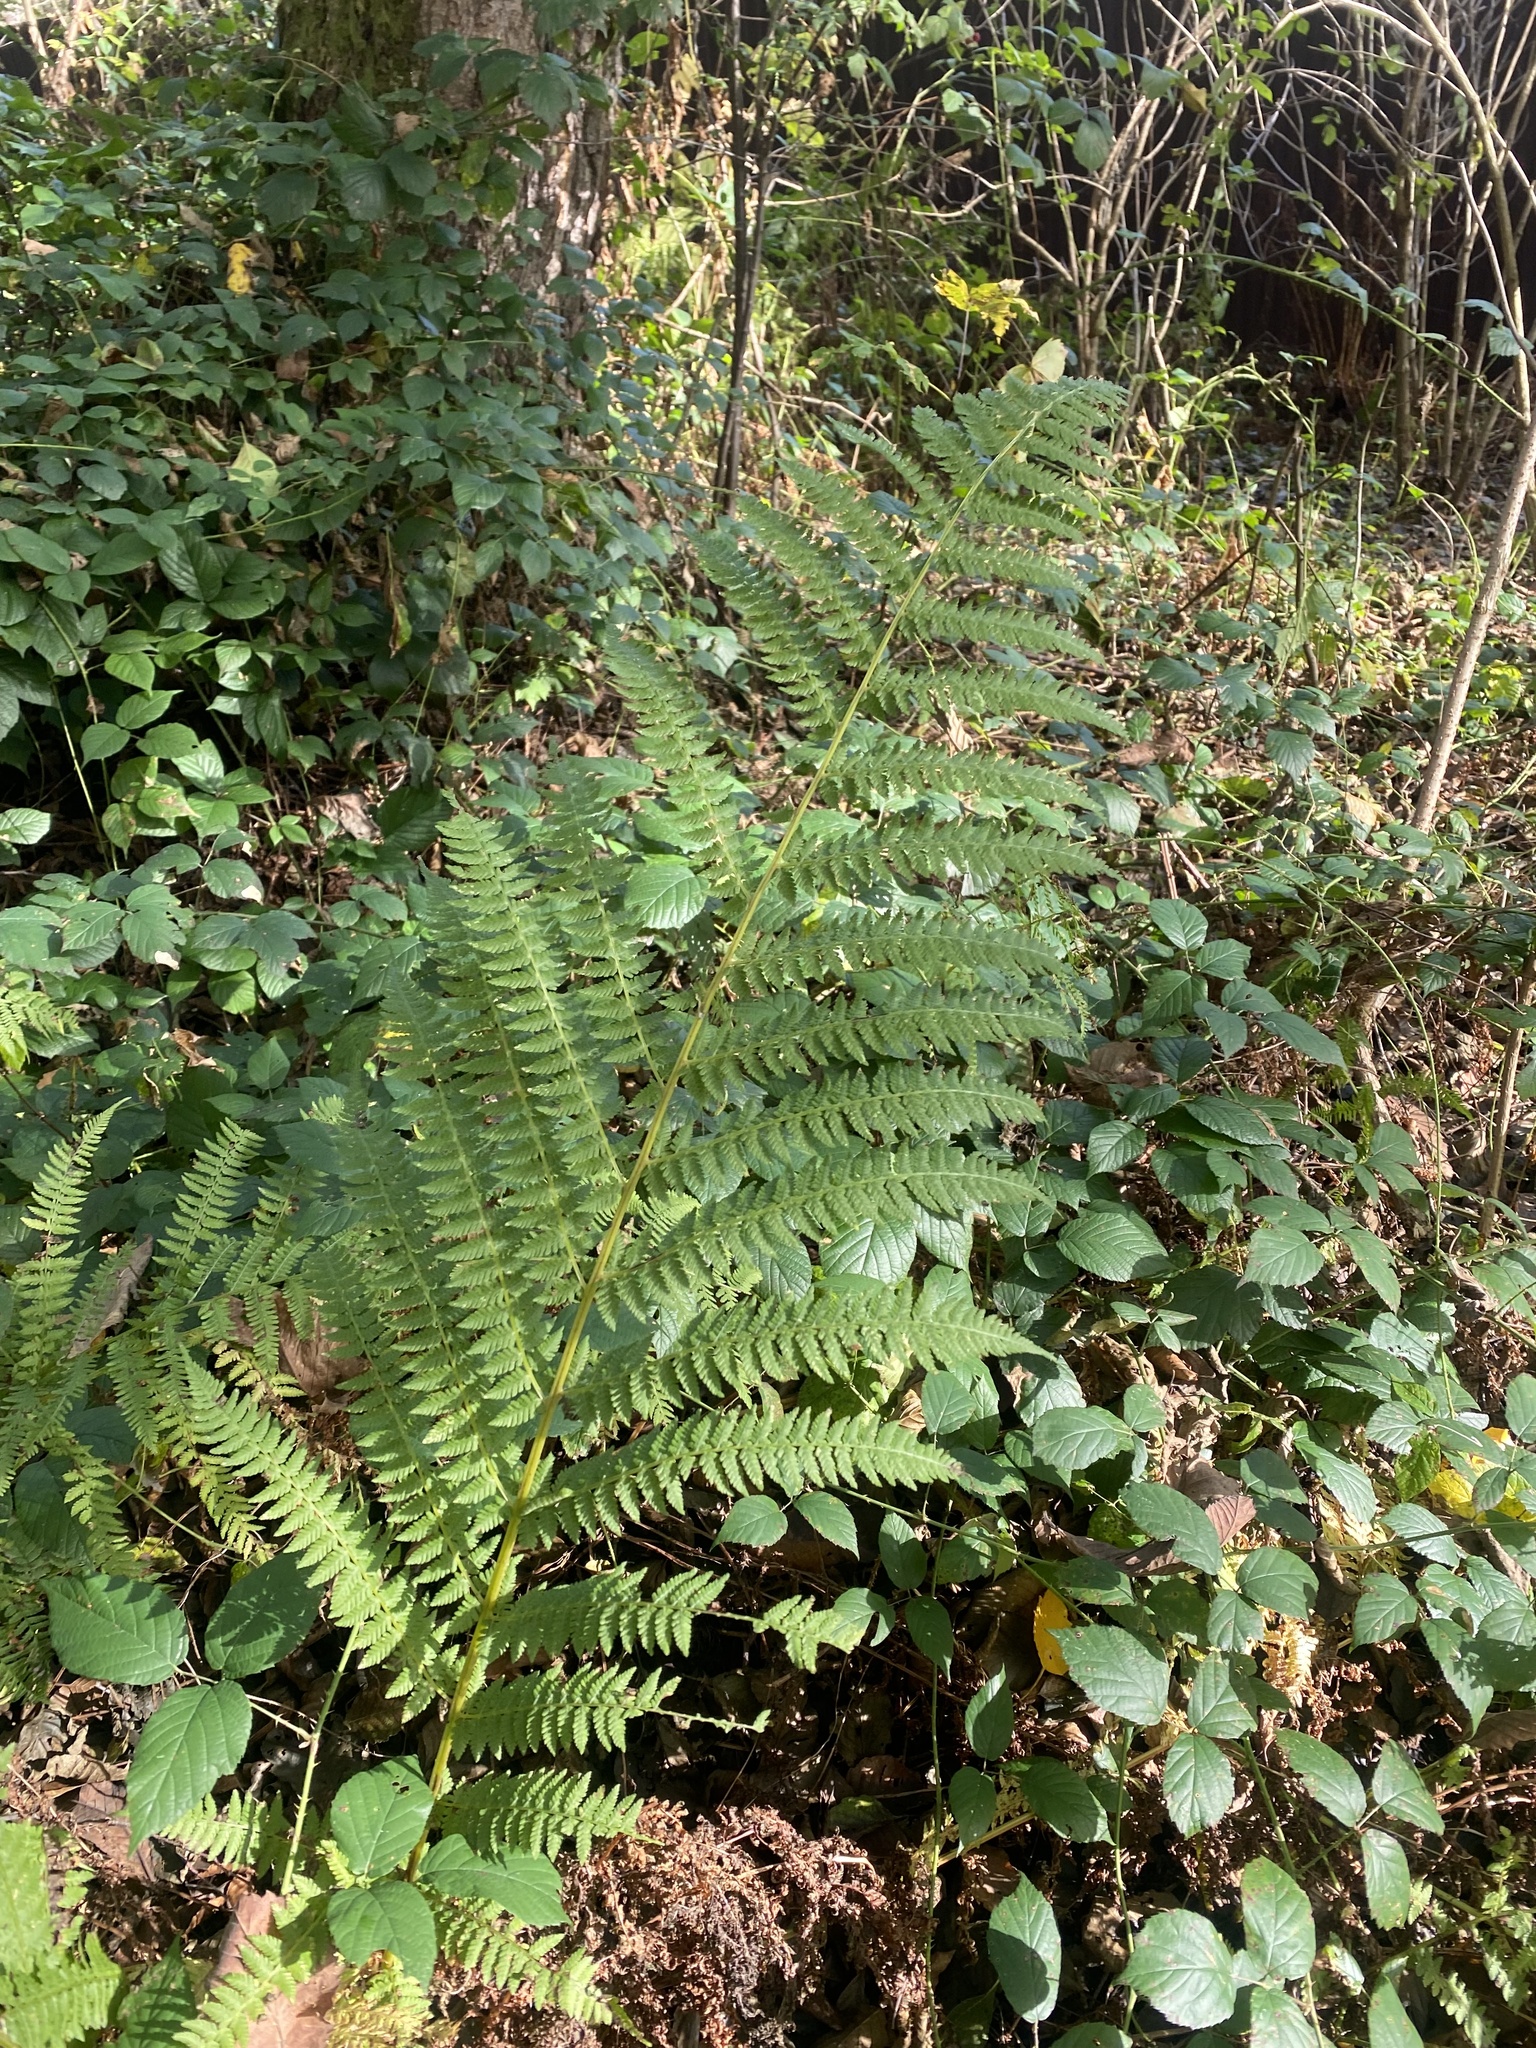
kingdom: Plantae
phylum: Tracheophyta
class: Polypodiopsida
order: Polypodiales
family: Athyriaceae
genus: Athyrium
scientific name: Athyrium filix-femina
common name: Lady fern
